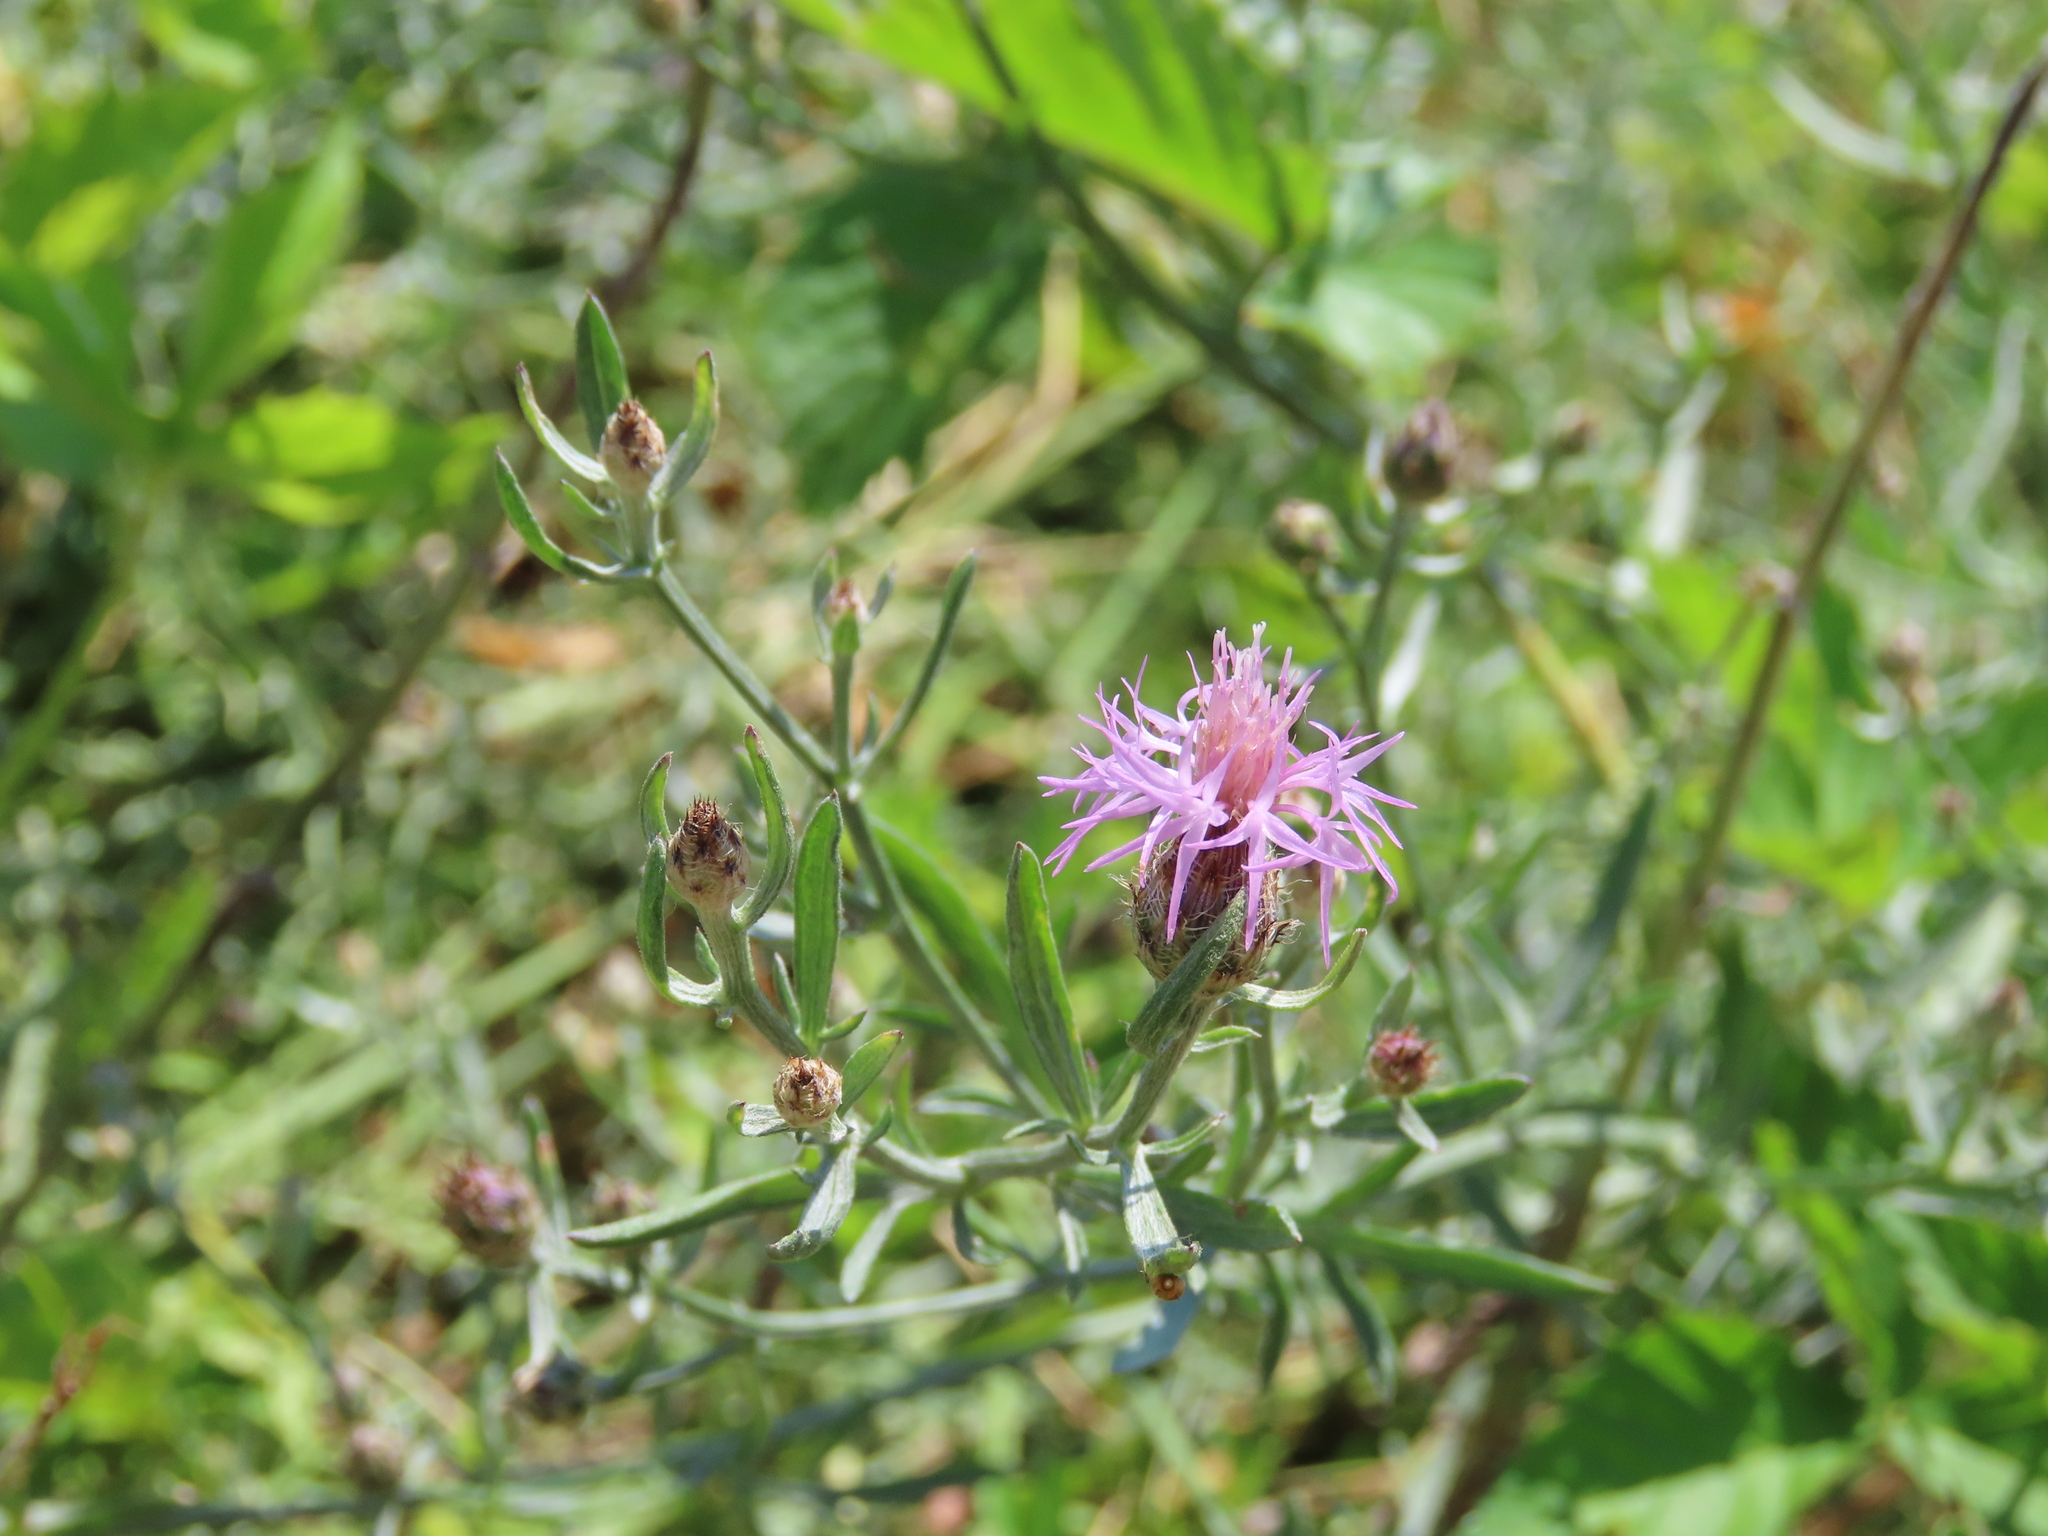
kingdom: Plantae
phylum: Tracheophyta
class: Magnoliopsida
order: Asterales
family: Asteraceae
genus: Centaurea
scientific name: Centaurea stoebe
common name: Spotted knapweed
